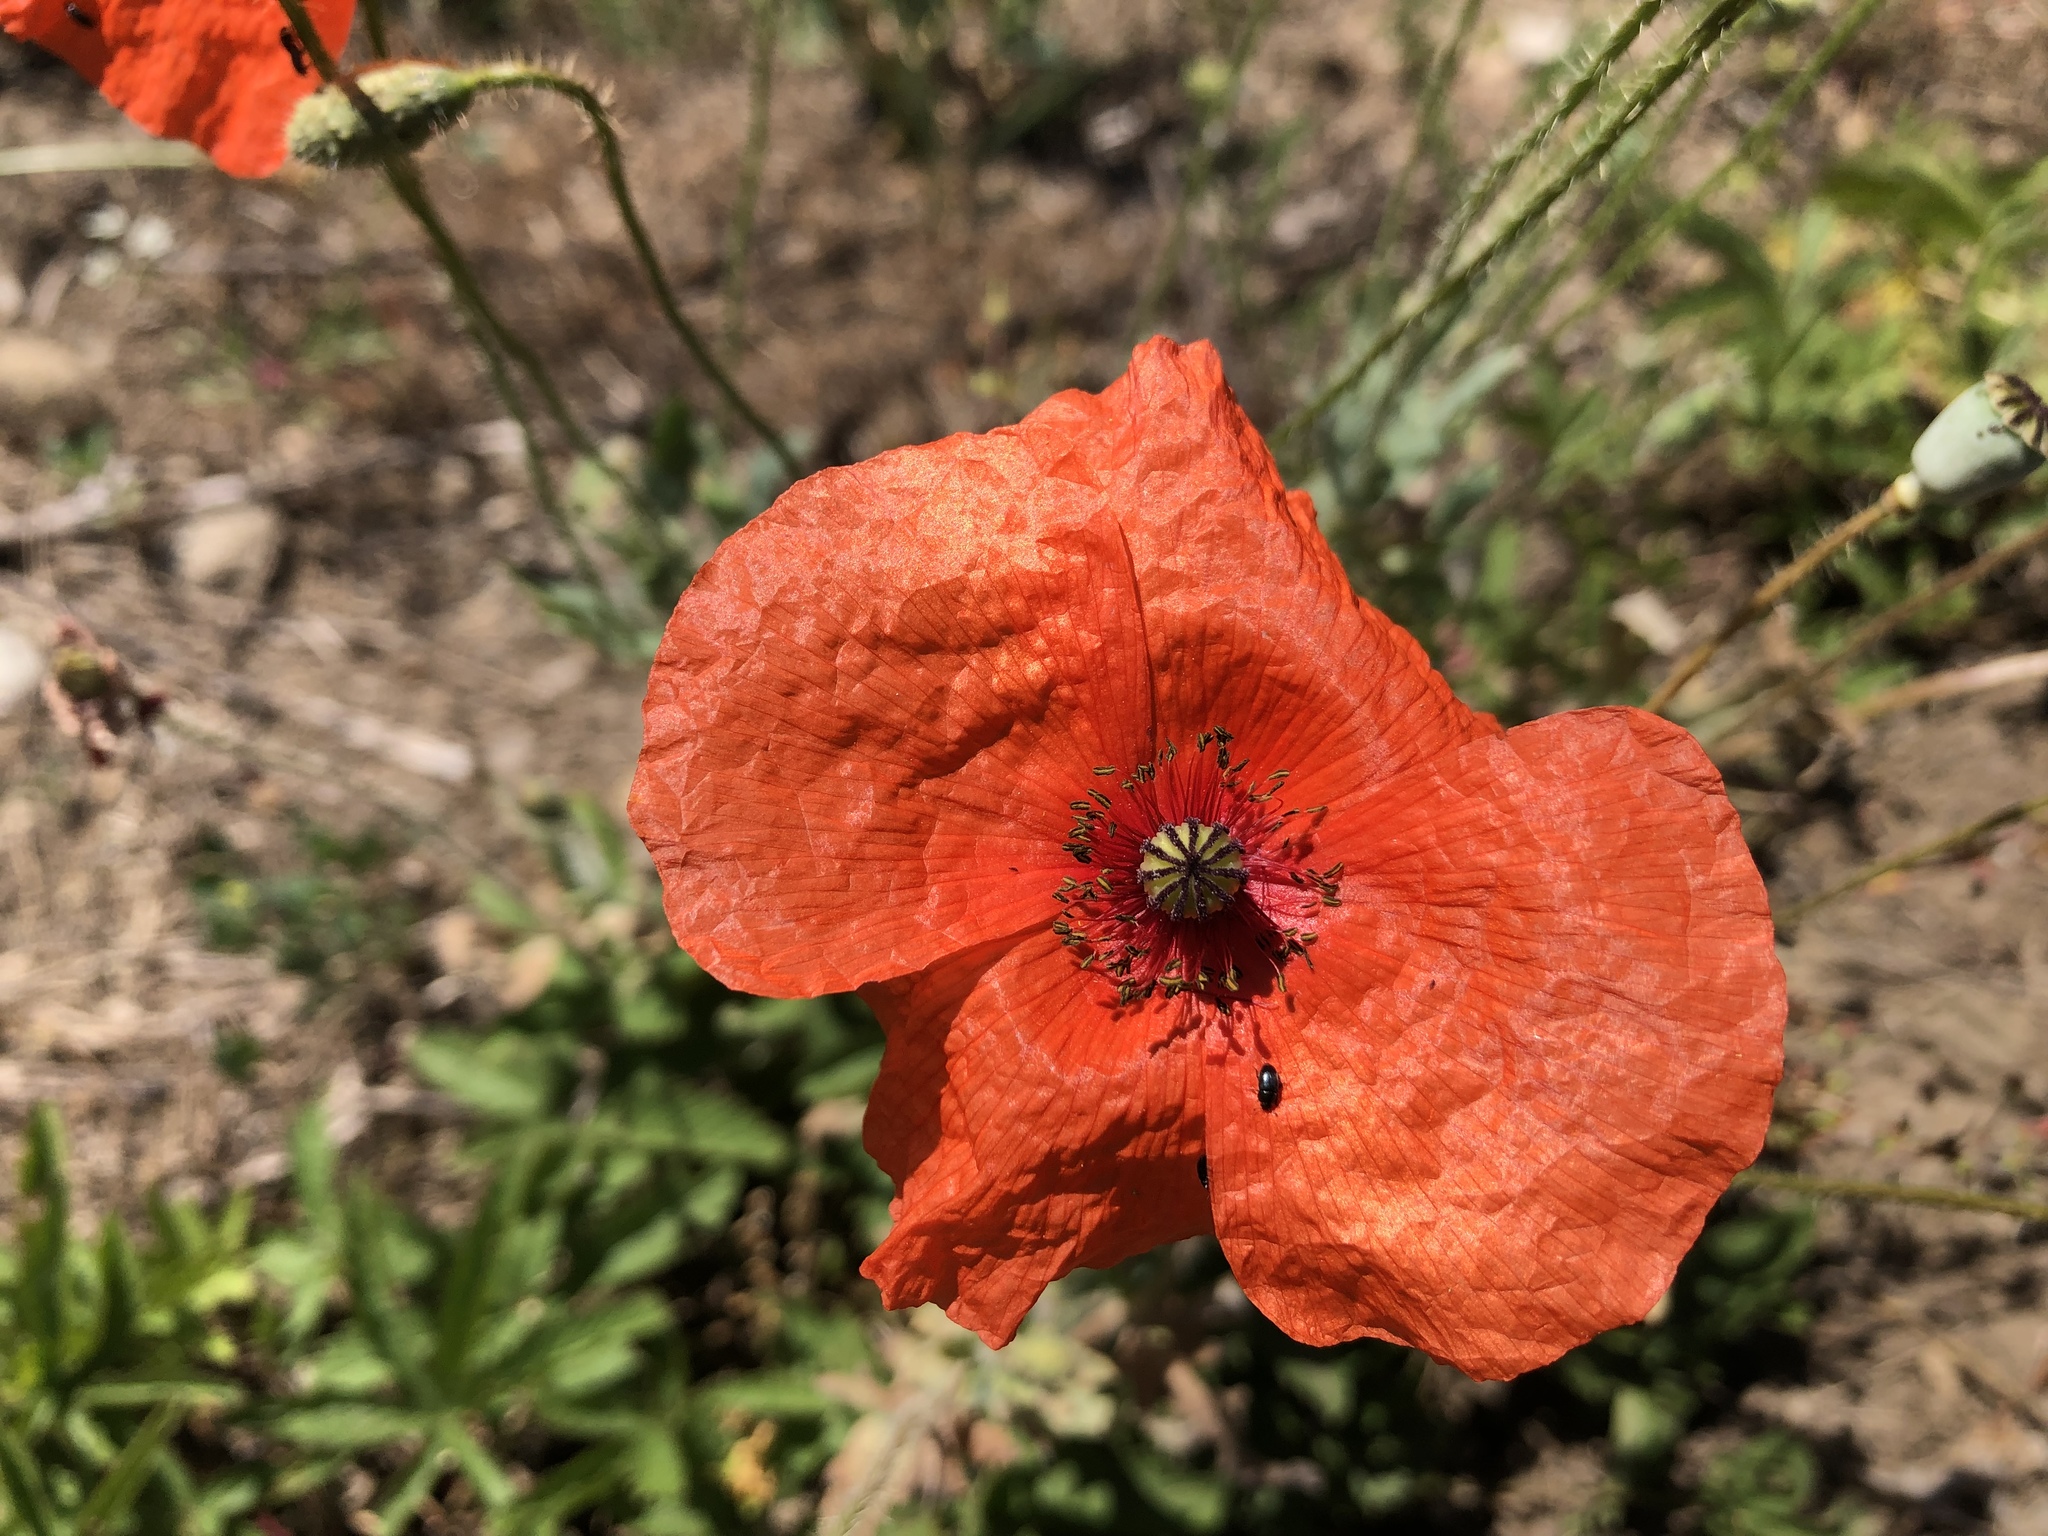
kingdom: Plantae
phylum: Tracheophyta
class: Magnoliopsida
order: Ranunculales
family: Papaveraceae
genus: Papaver
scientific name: Papaver rhoeas
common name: Corn poppy
